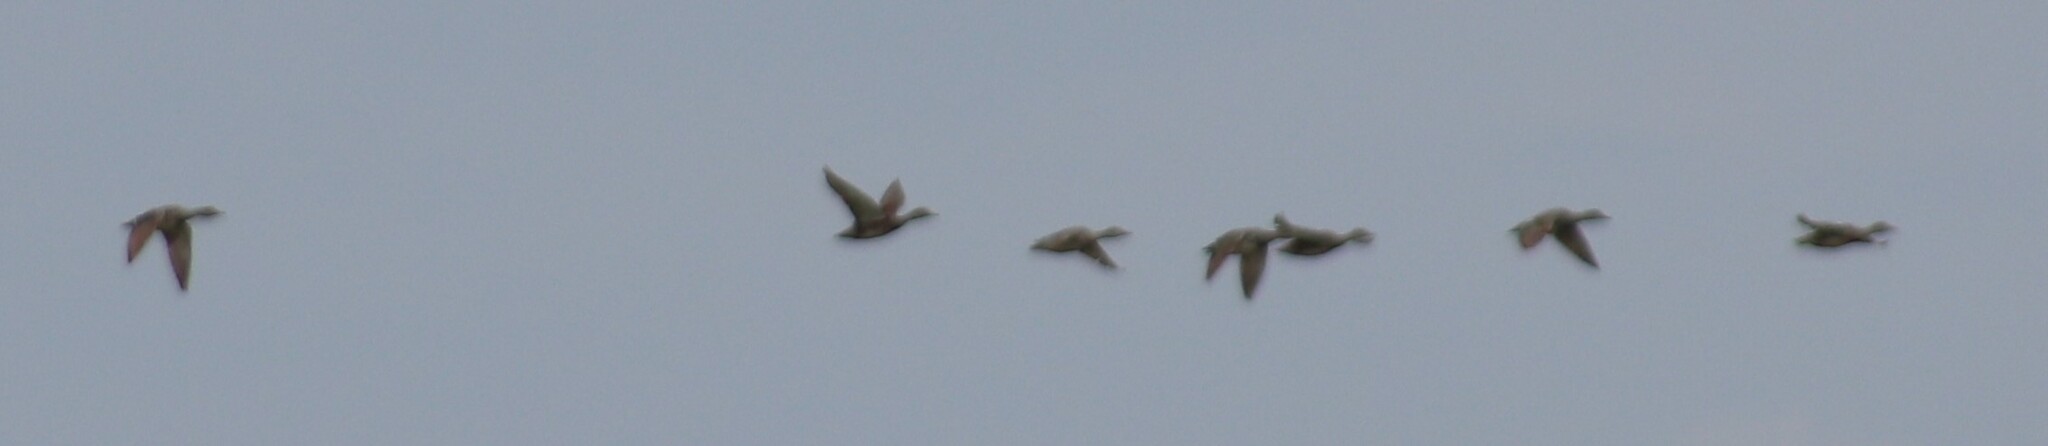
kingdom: Animalia
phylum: Chordata
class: Aves
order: Anseriformes
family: Anatidae
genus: Mareca
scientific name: Mareca strepera
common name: Gadwall
